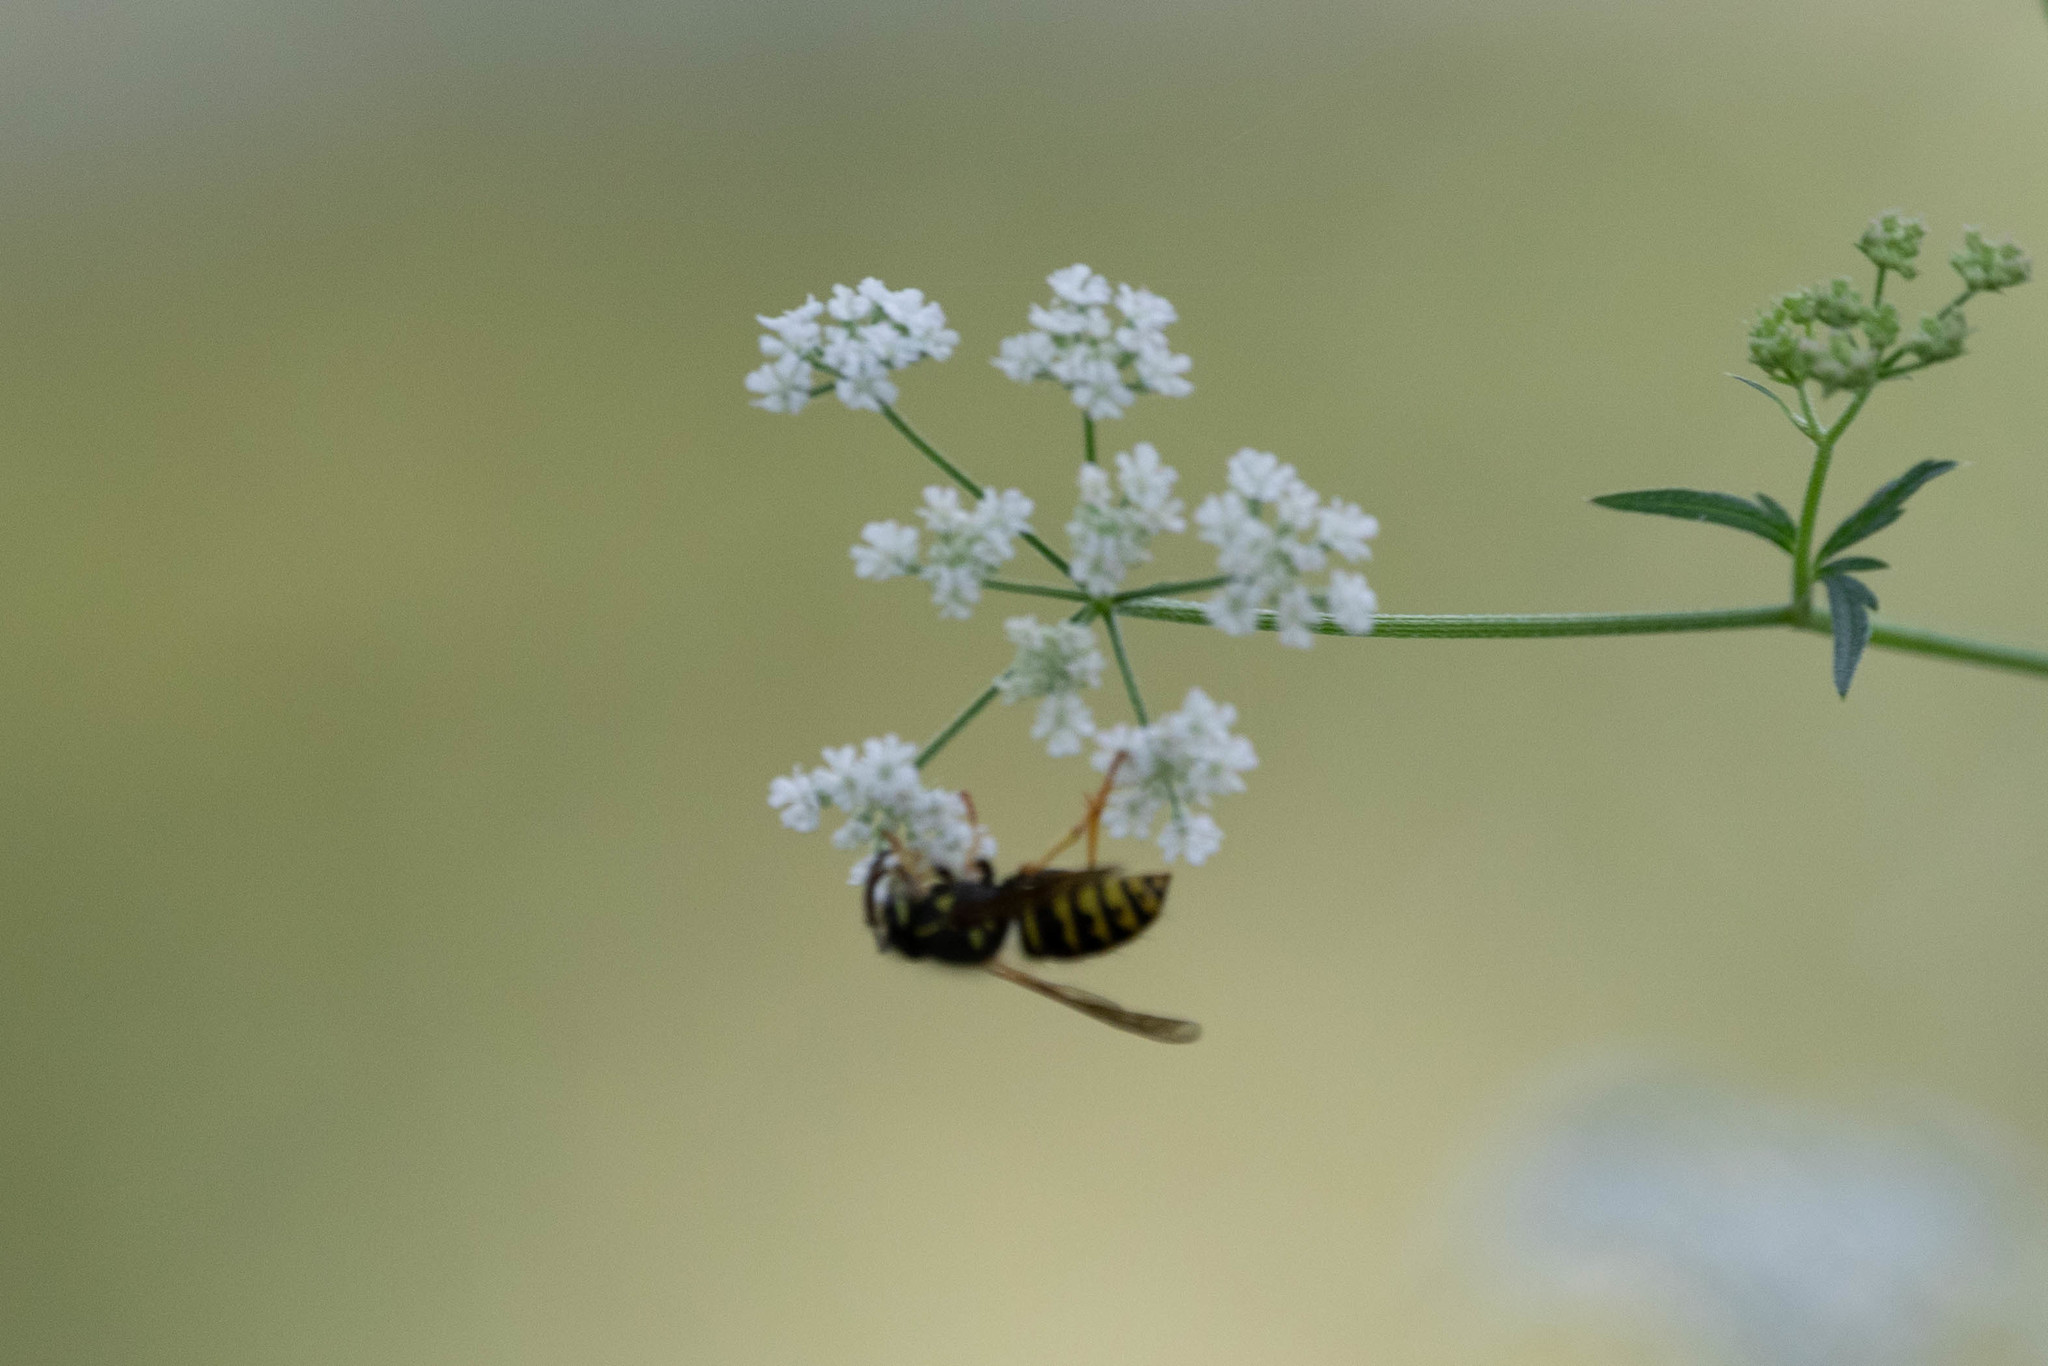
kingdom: Animalia
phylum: Arthropoda
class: Insecta
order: Hymenoptera
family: Vespidae
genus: Dolichovespula
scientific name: Dolichovespula arenaria
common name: Aerial yellowjacket
